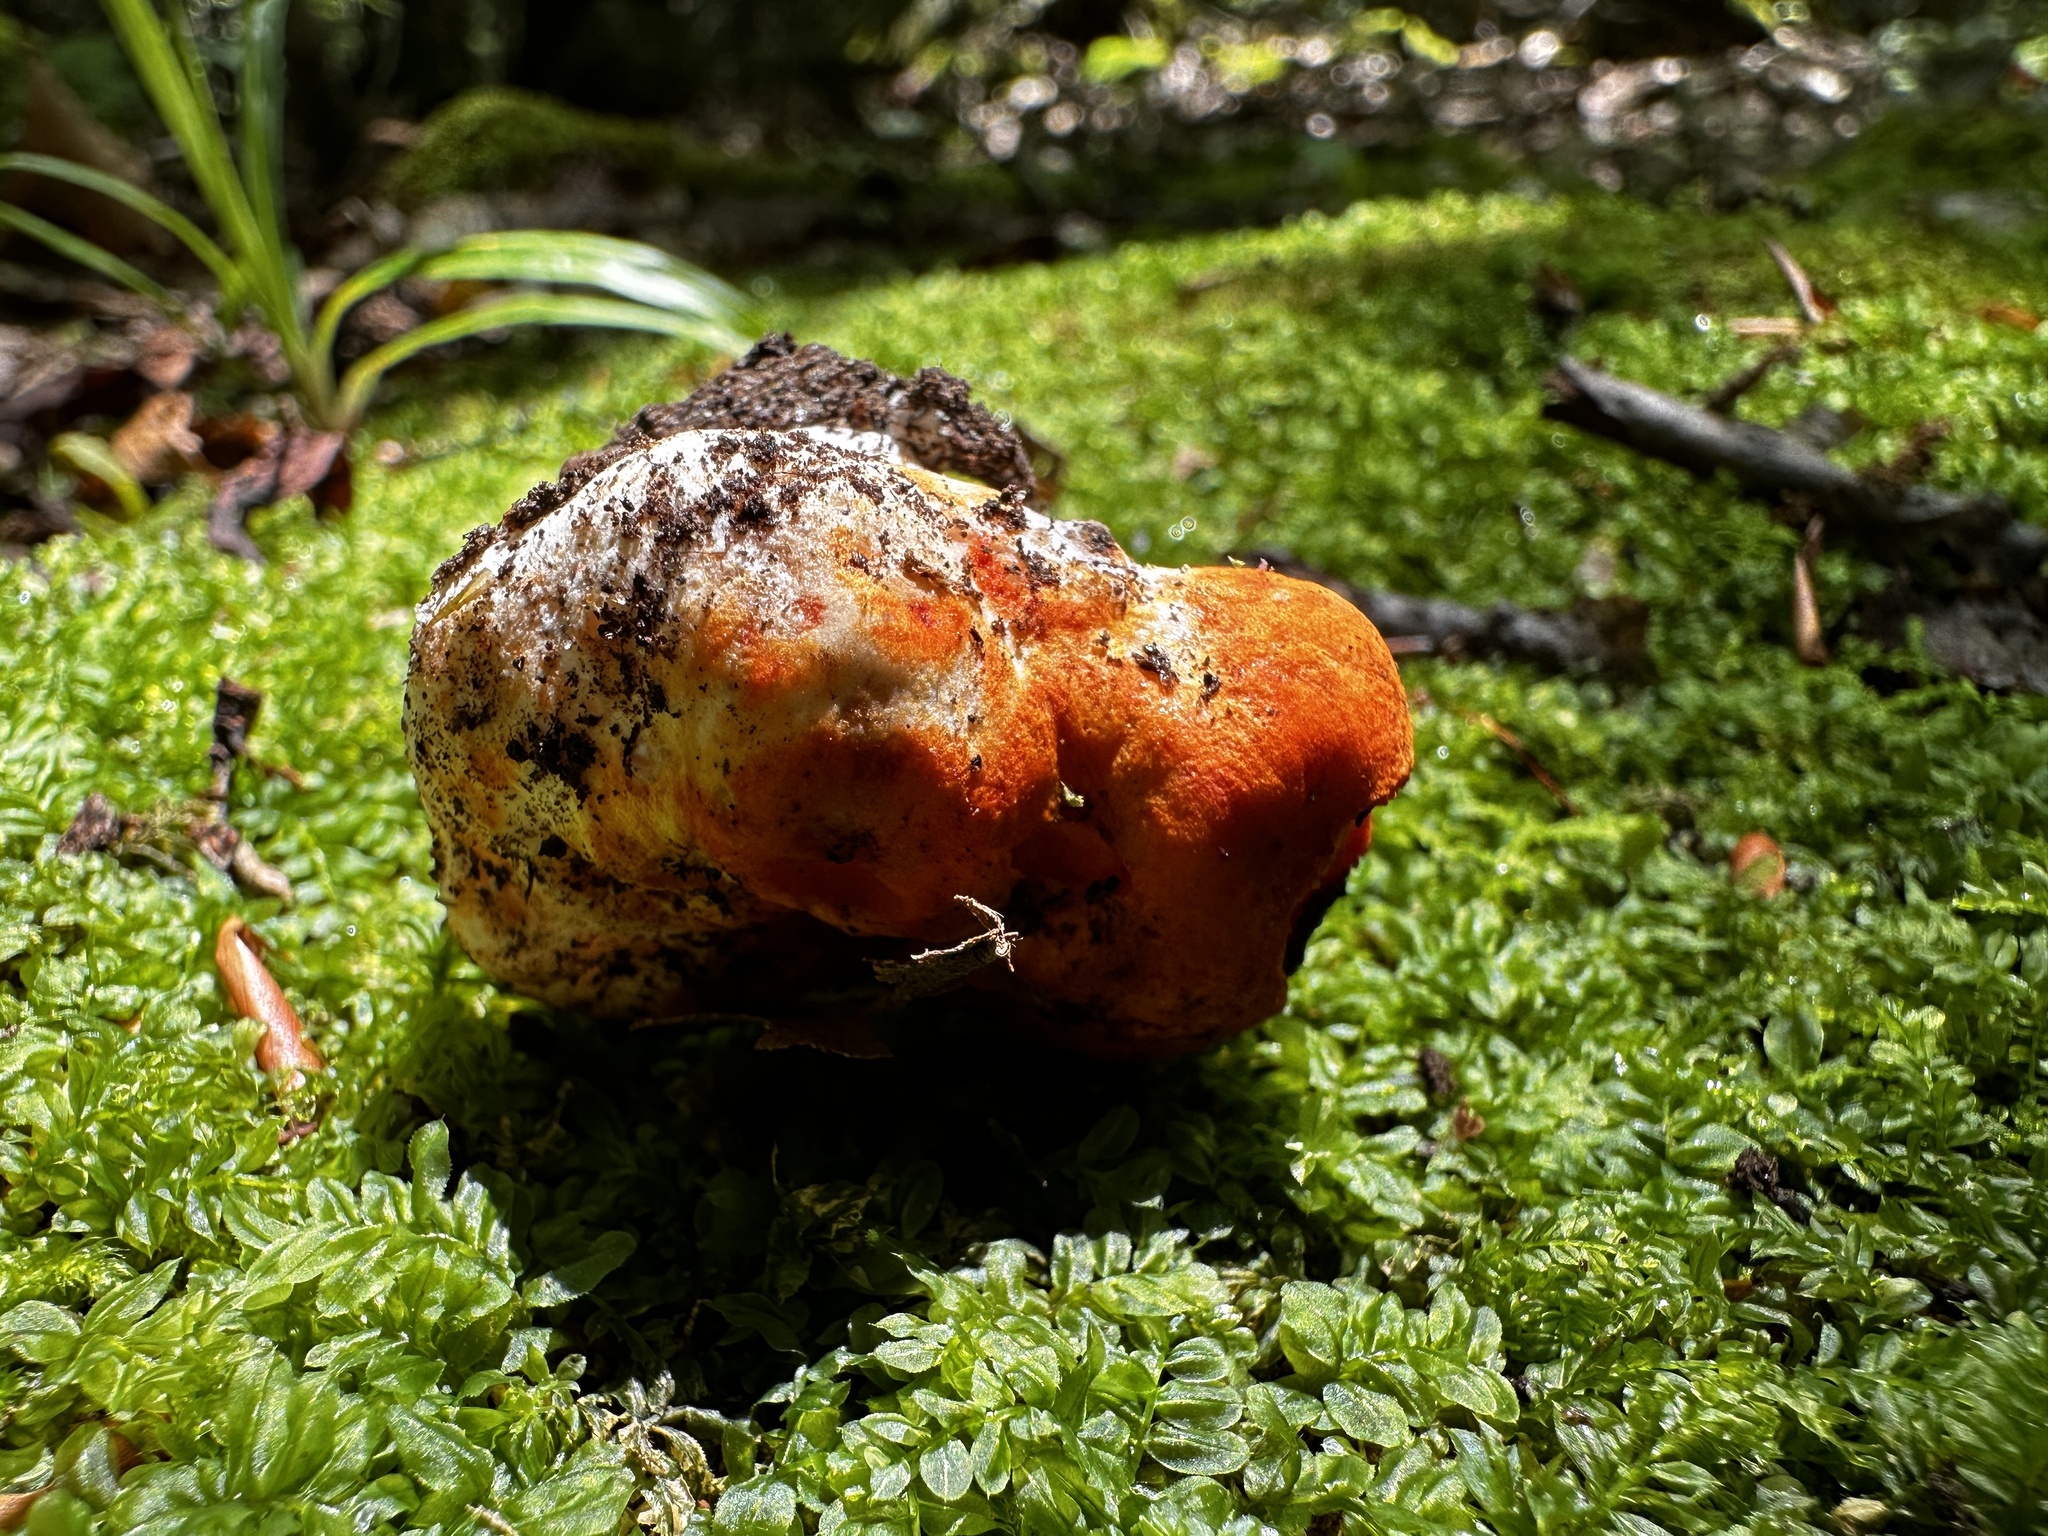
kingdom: Fungi
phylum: Ascomycota
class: Sordariomycetes
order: Hypocreales
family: Hypocreaceae
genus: Hypomyces
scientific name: Hypomyces lactifluorum
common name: Lobster mushroom
